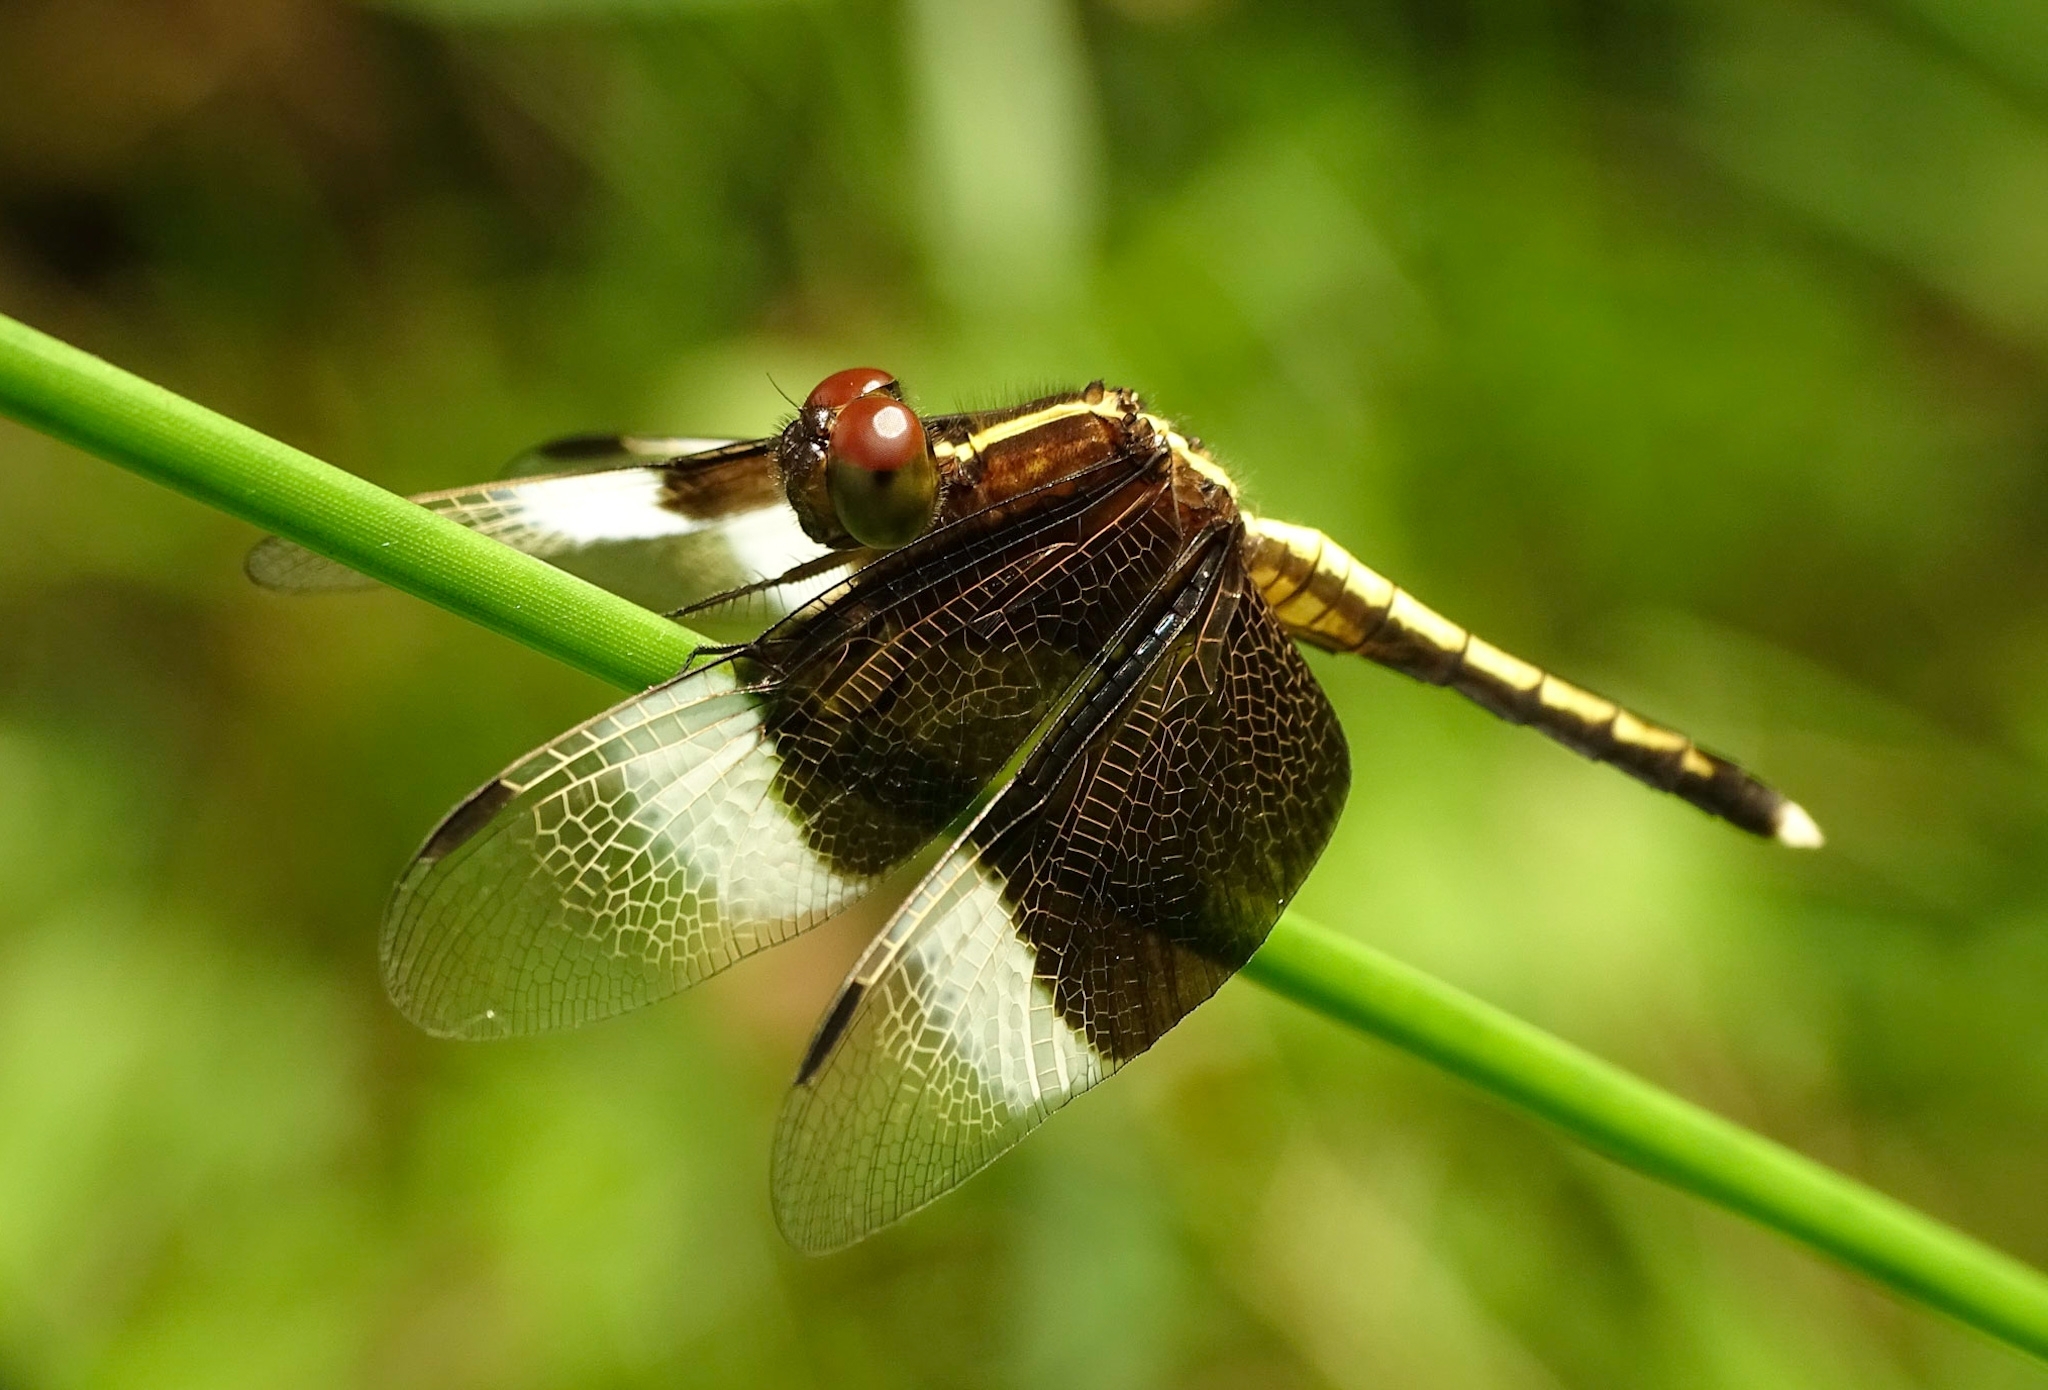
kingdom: Animalia
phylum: Arthropoda
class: Insecta
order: Odonata
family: Libellulidae
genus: Neurothemis
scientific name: Neurothemis tullia
